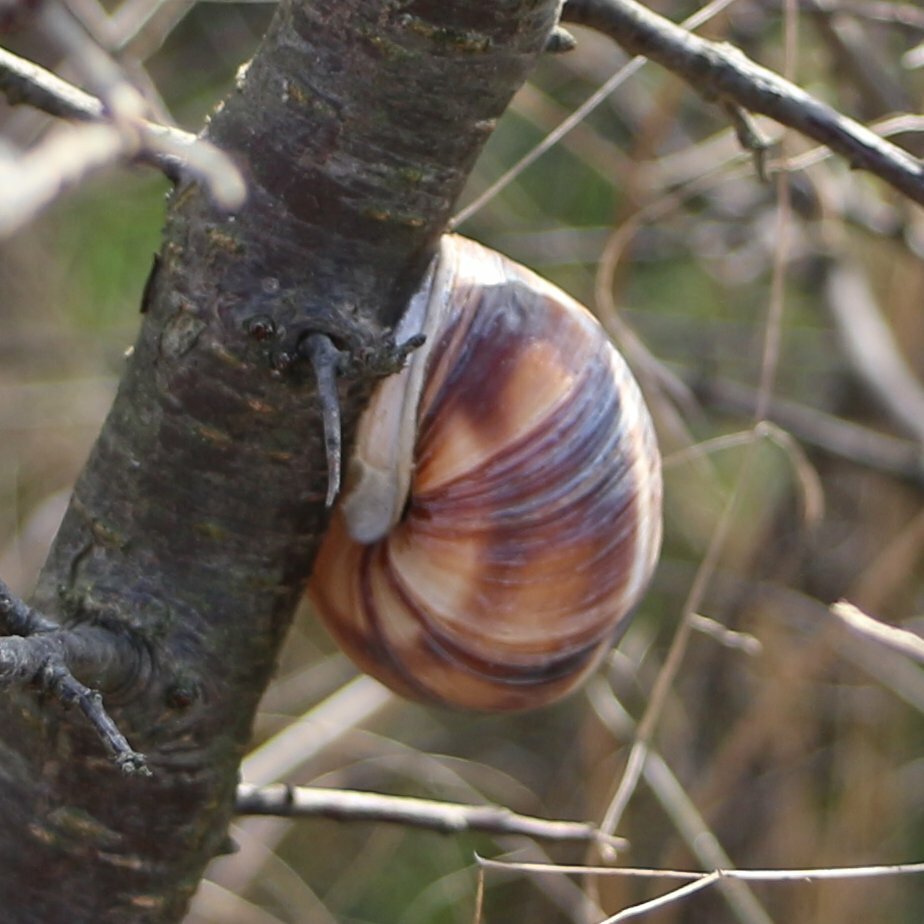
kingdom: Animalia
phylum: Mollusca
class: Gastropoda
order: Stylommatophora
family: Helicidae
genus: Helix
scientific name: Helix lucorum
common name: Turkish snail
